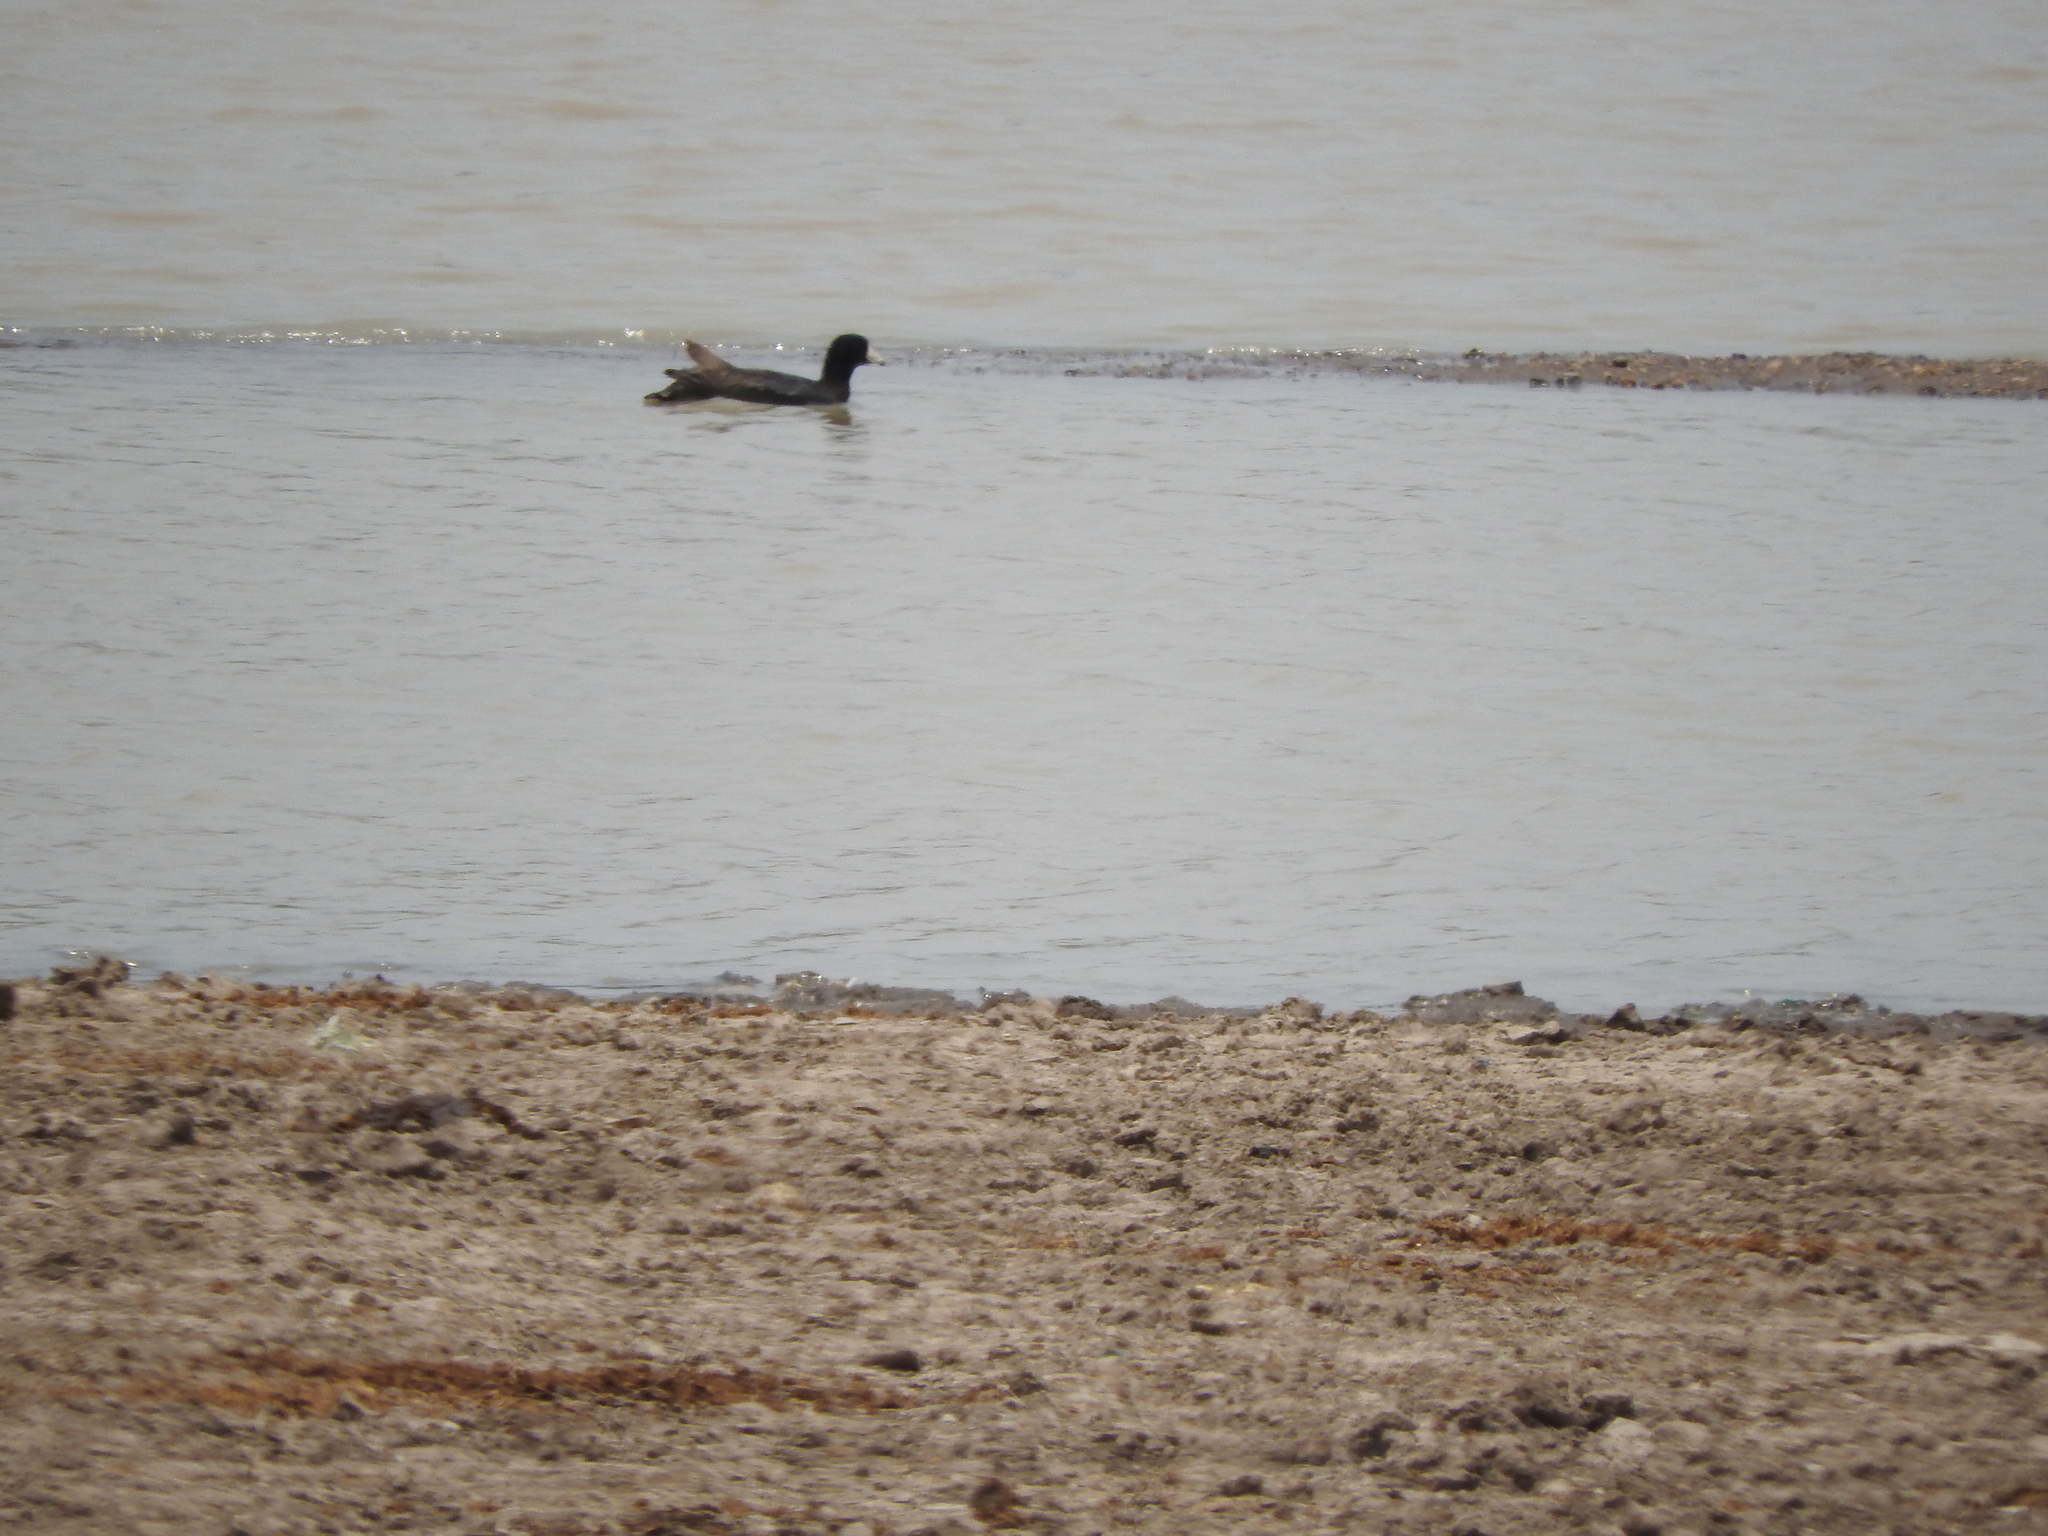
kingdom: Animalia
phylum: Chordata
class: Aves
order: Gruiformes
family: Rallidae
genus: Fulica
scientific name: Fulica americana
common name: American coot
